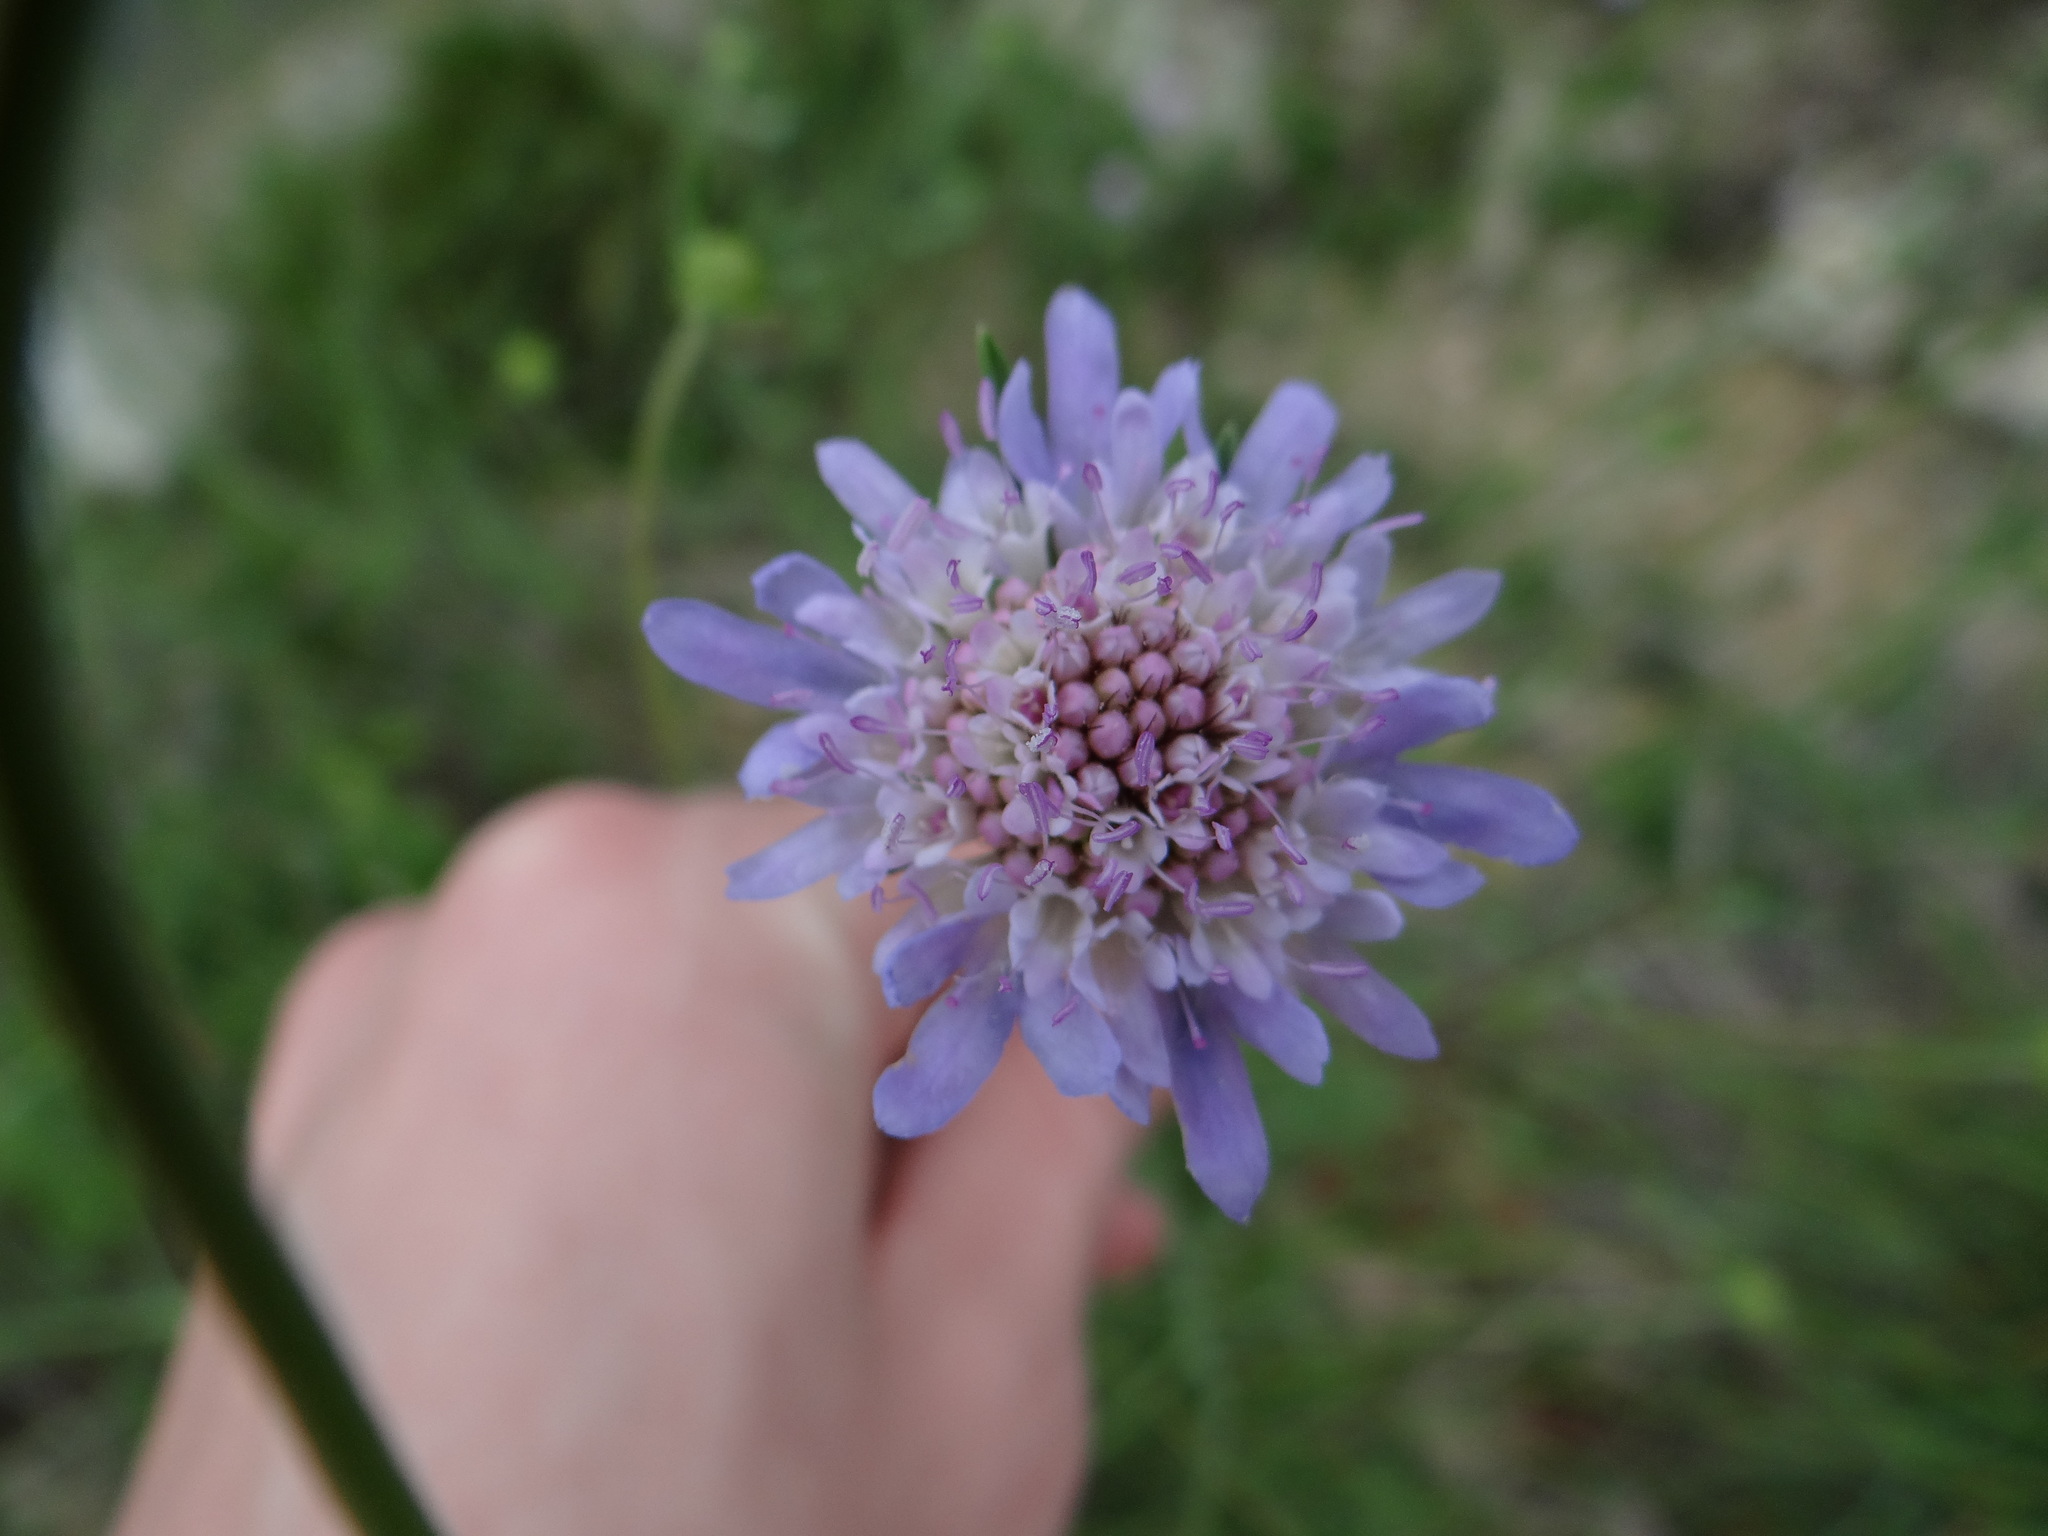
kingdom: Plantae
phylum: Tracheophyta
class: Magnoliopsida
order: Dipsacales
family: Caprifoliaceae
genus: Sixalix
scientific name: Sixalix atropurpurea
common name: Sweet scabious
